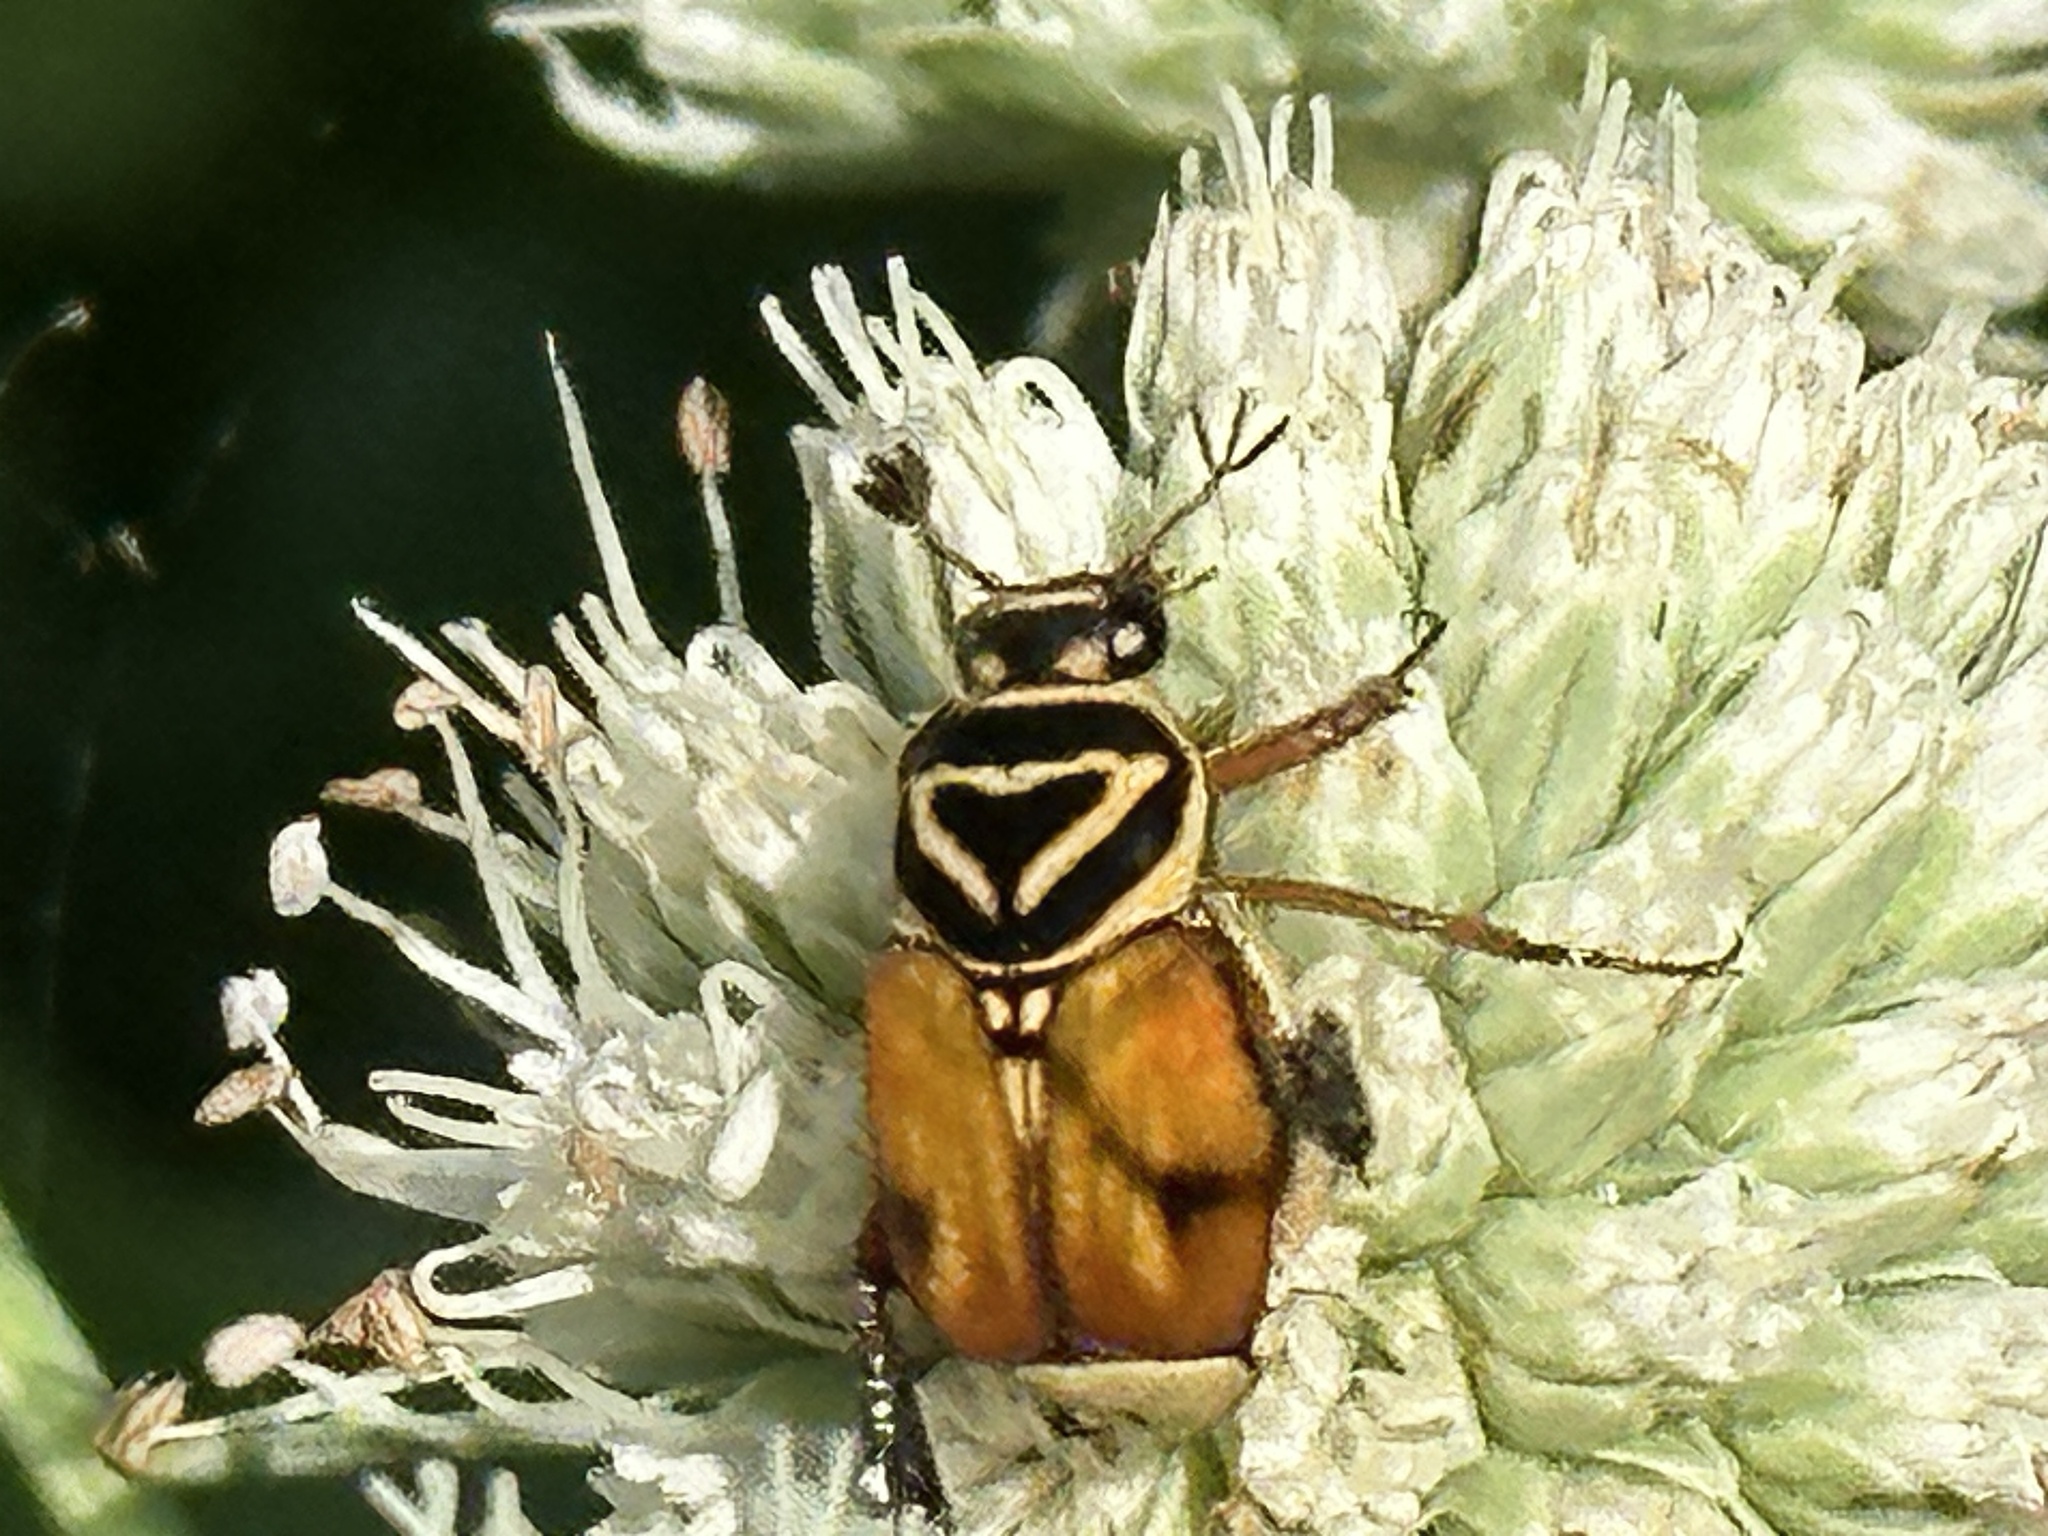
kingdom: Animalia
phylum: Arthropoda
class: Insecta
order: Coleoptera
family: Scarabaeidae
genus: Trigonopeltastes
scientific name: Trigonopeltastes delta
